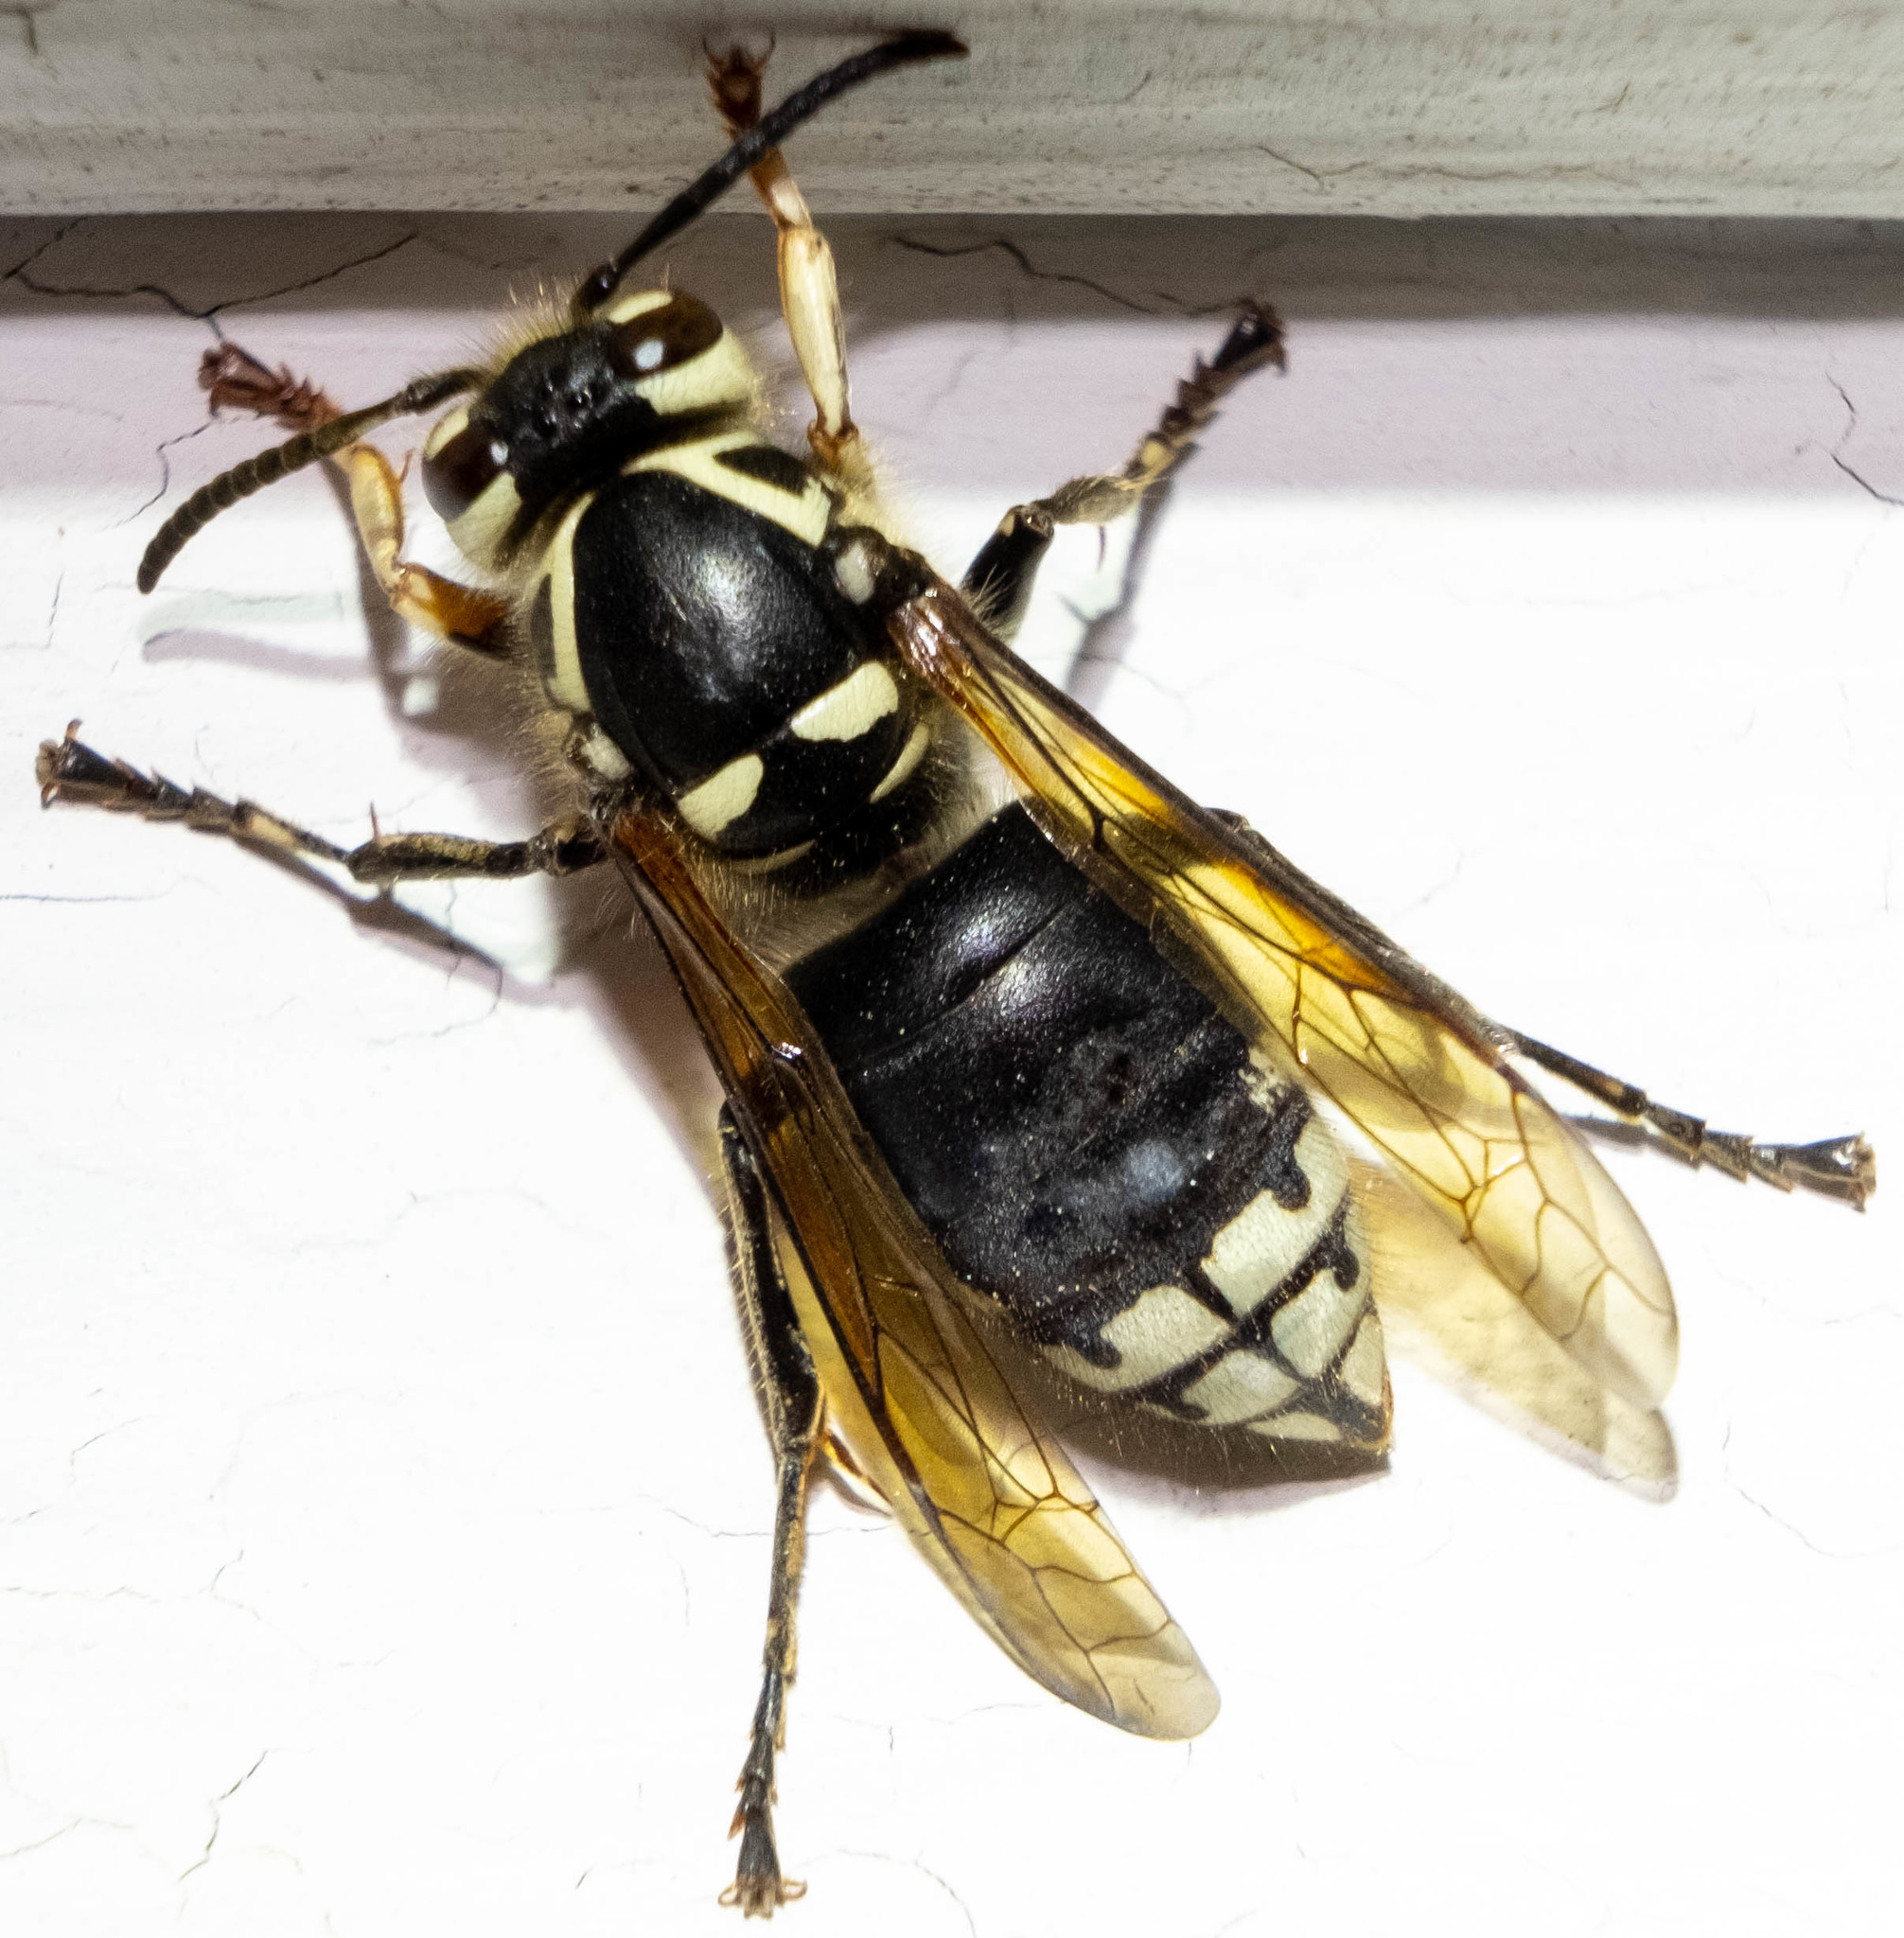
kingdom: Animalia
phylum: Arthropoda
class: Insecta
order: Hymenoptera
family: Vespidae
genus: Dolichovespula
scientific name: Dolichovespula maculata
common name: Bald-faced hornet
